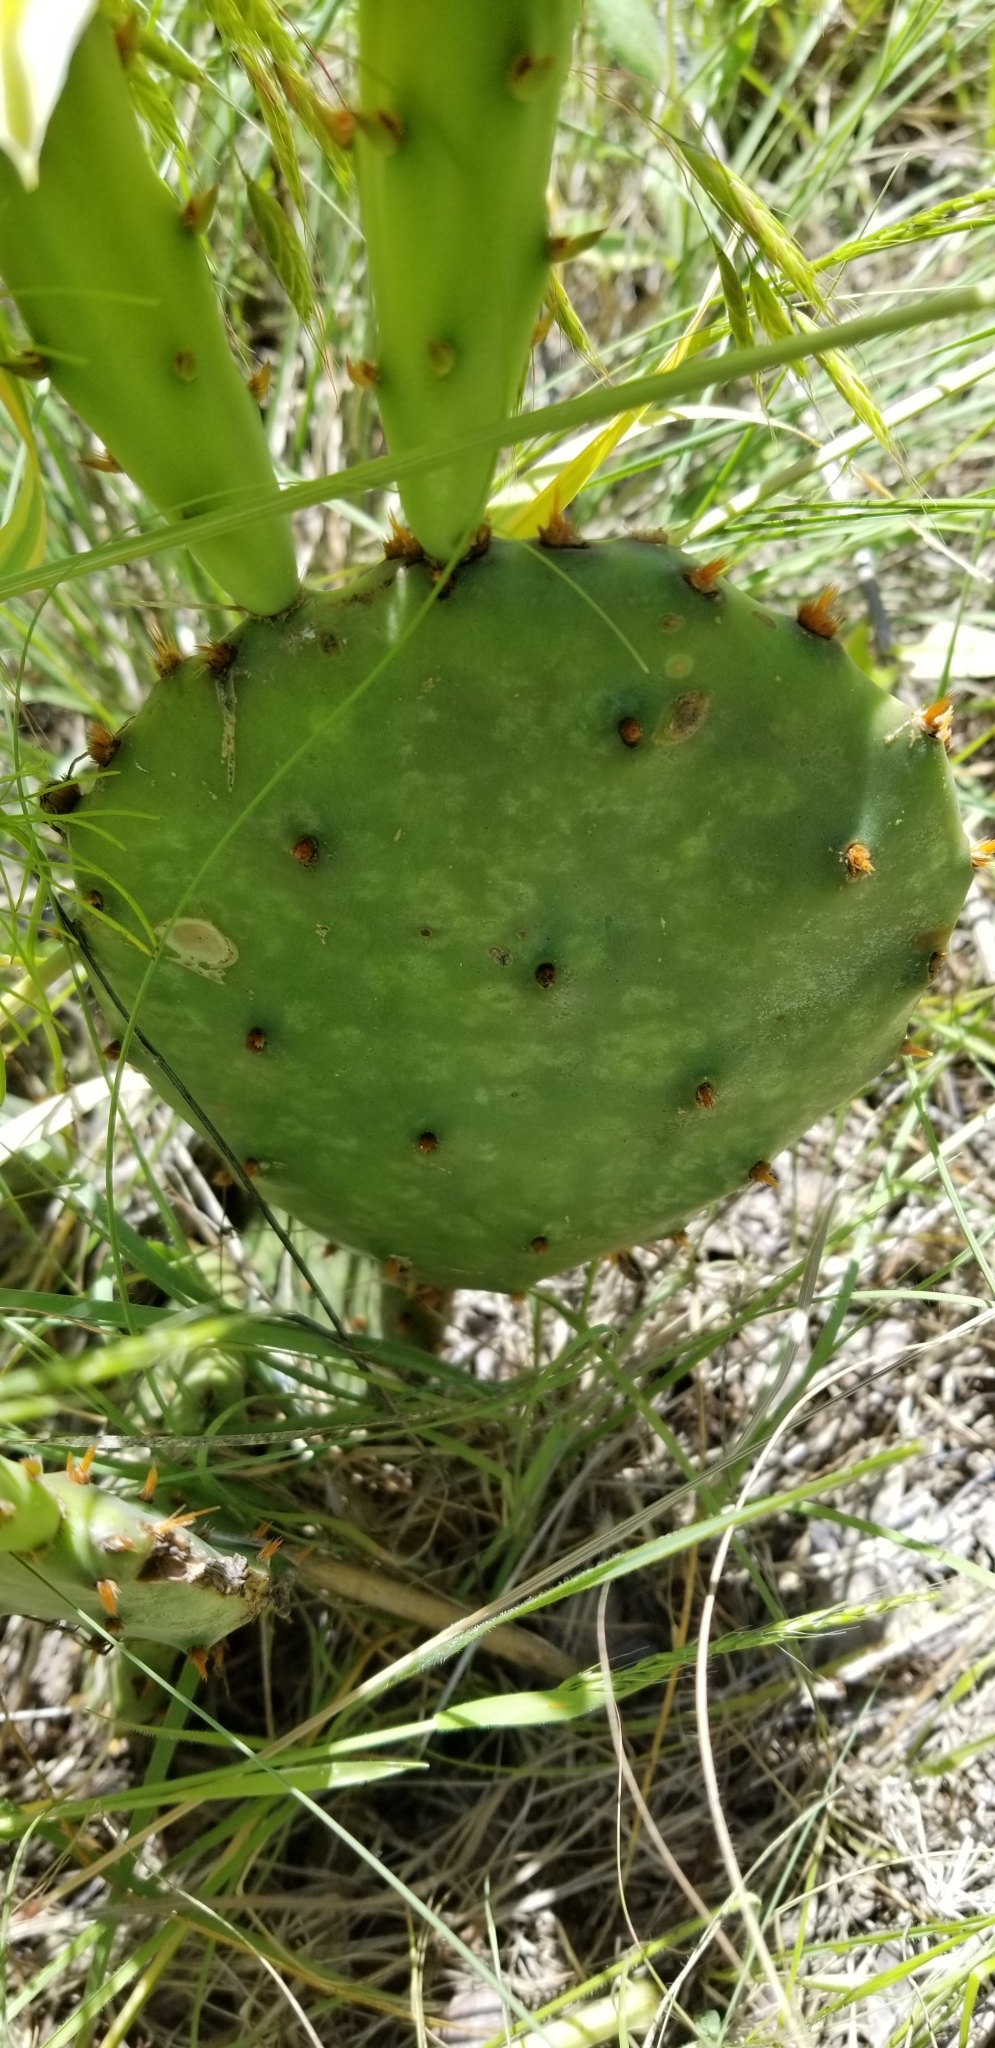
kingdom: Plantae
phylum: Tracheophyta
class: Magnoliopsida
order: Caryophyllales
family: Cactaceae
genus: Opuntia
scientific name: Opuntia macrorhiza
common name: Grassland pricklypear
